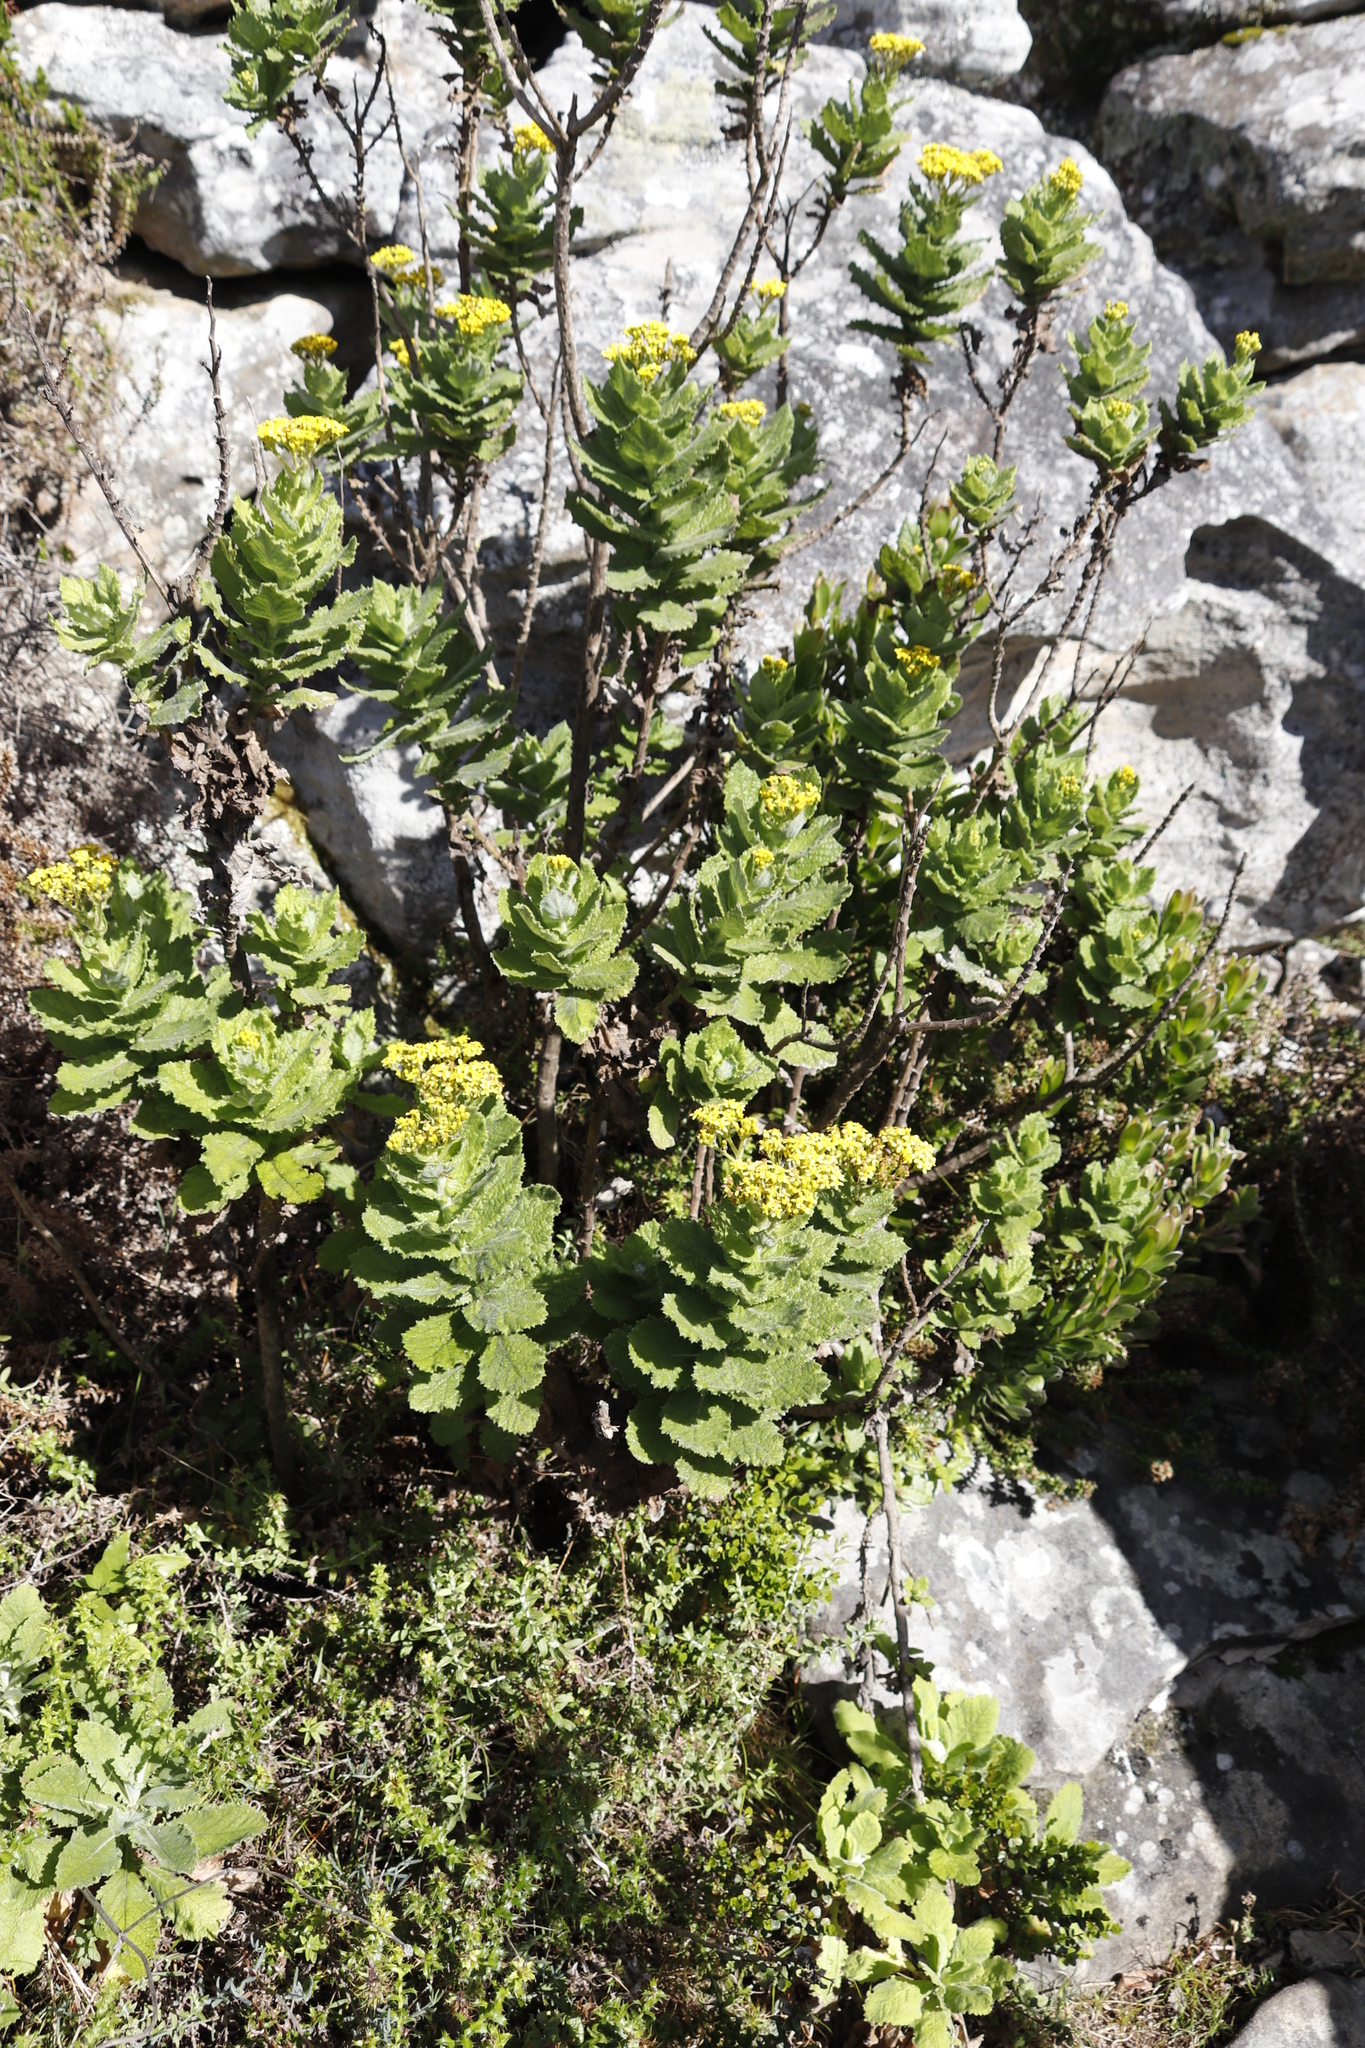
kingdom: Plantae
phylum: Tracheophyta
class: Magnoliopsida
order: Asterales
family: Asteraceae
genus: Senecio
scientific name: Senecio rigidus
